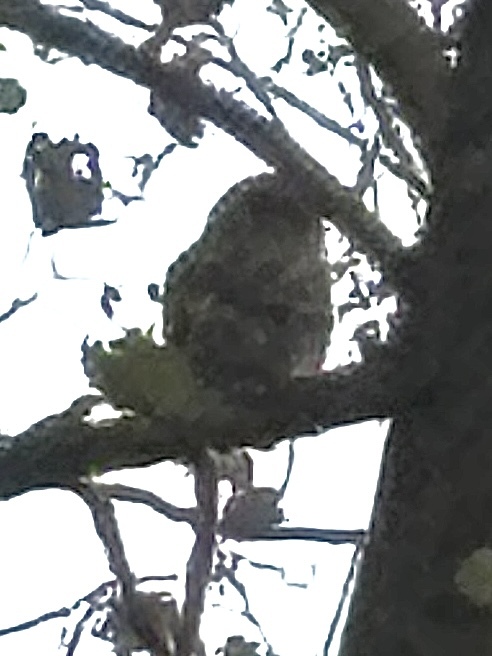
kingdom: Animalia
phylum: Chordata
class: Aves
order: Strigiformes
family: Strigidae
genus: Strix
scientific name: Strix varia
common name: Barred owl
